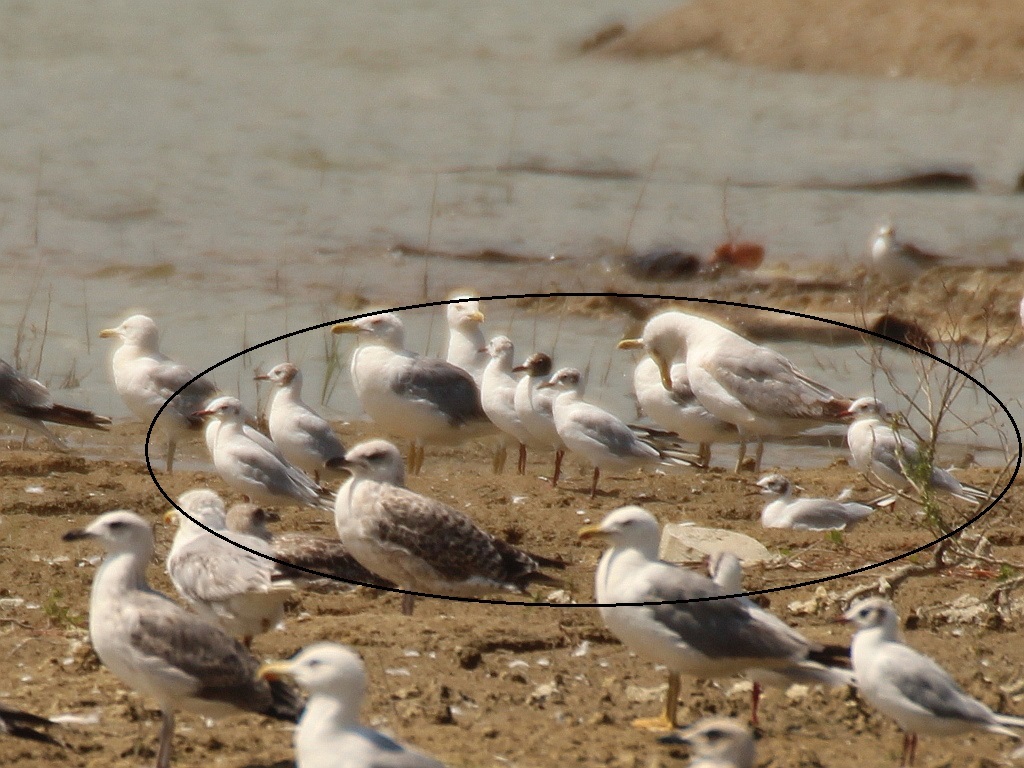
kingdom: Animalia
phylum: Chordata
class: Aves
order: Charadriiformes
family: Laridae
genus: Chroicocephalus
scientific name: Chroicocephalus ridibundus
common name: Black-headed gull
